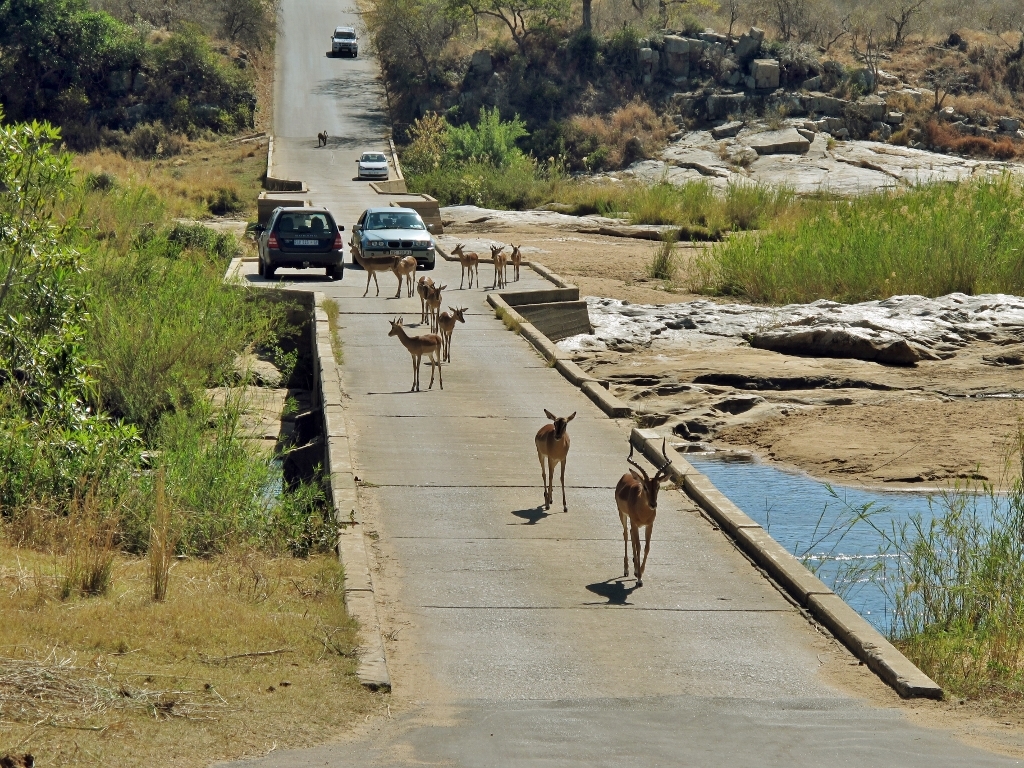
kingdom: Animalia
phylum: Chordata
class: Mammalia
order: Artiodactyla
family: Bovidae
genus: Aepyceros
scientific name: Aepyceros melampus
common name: Impala
